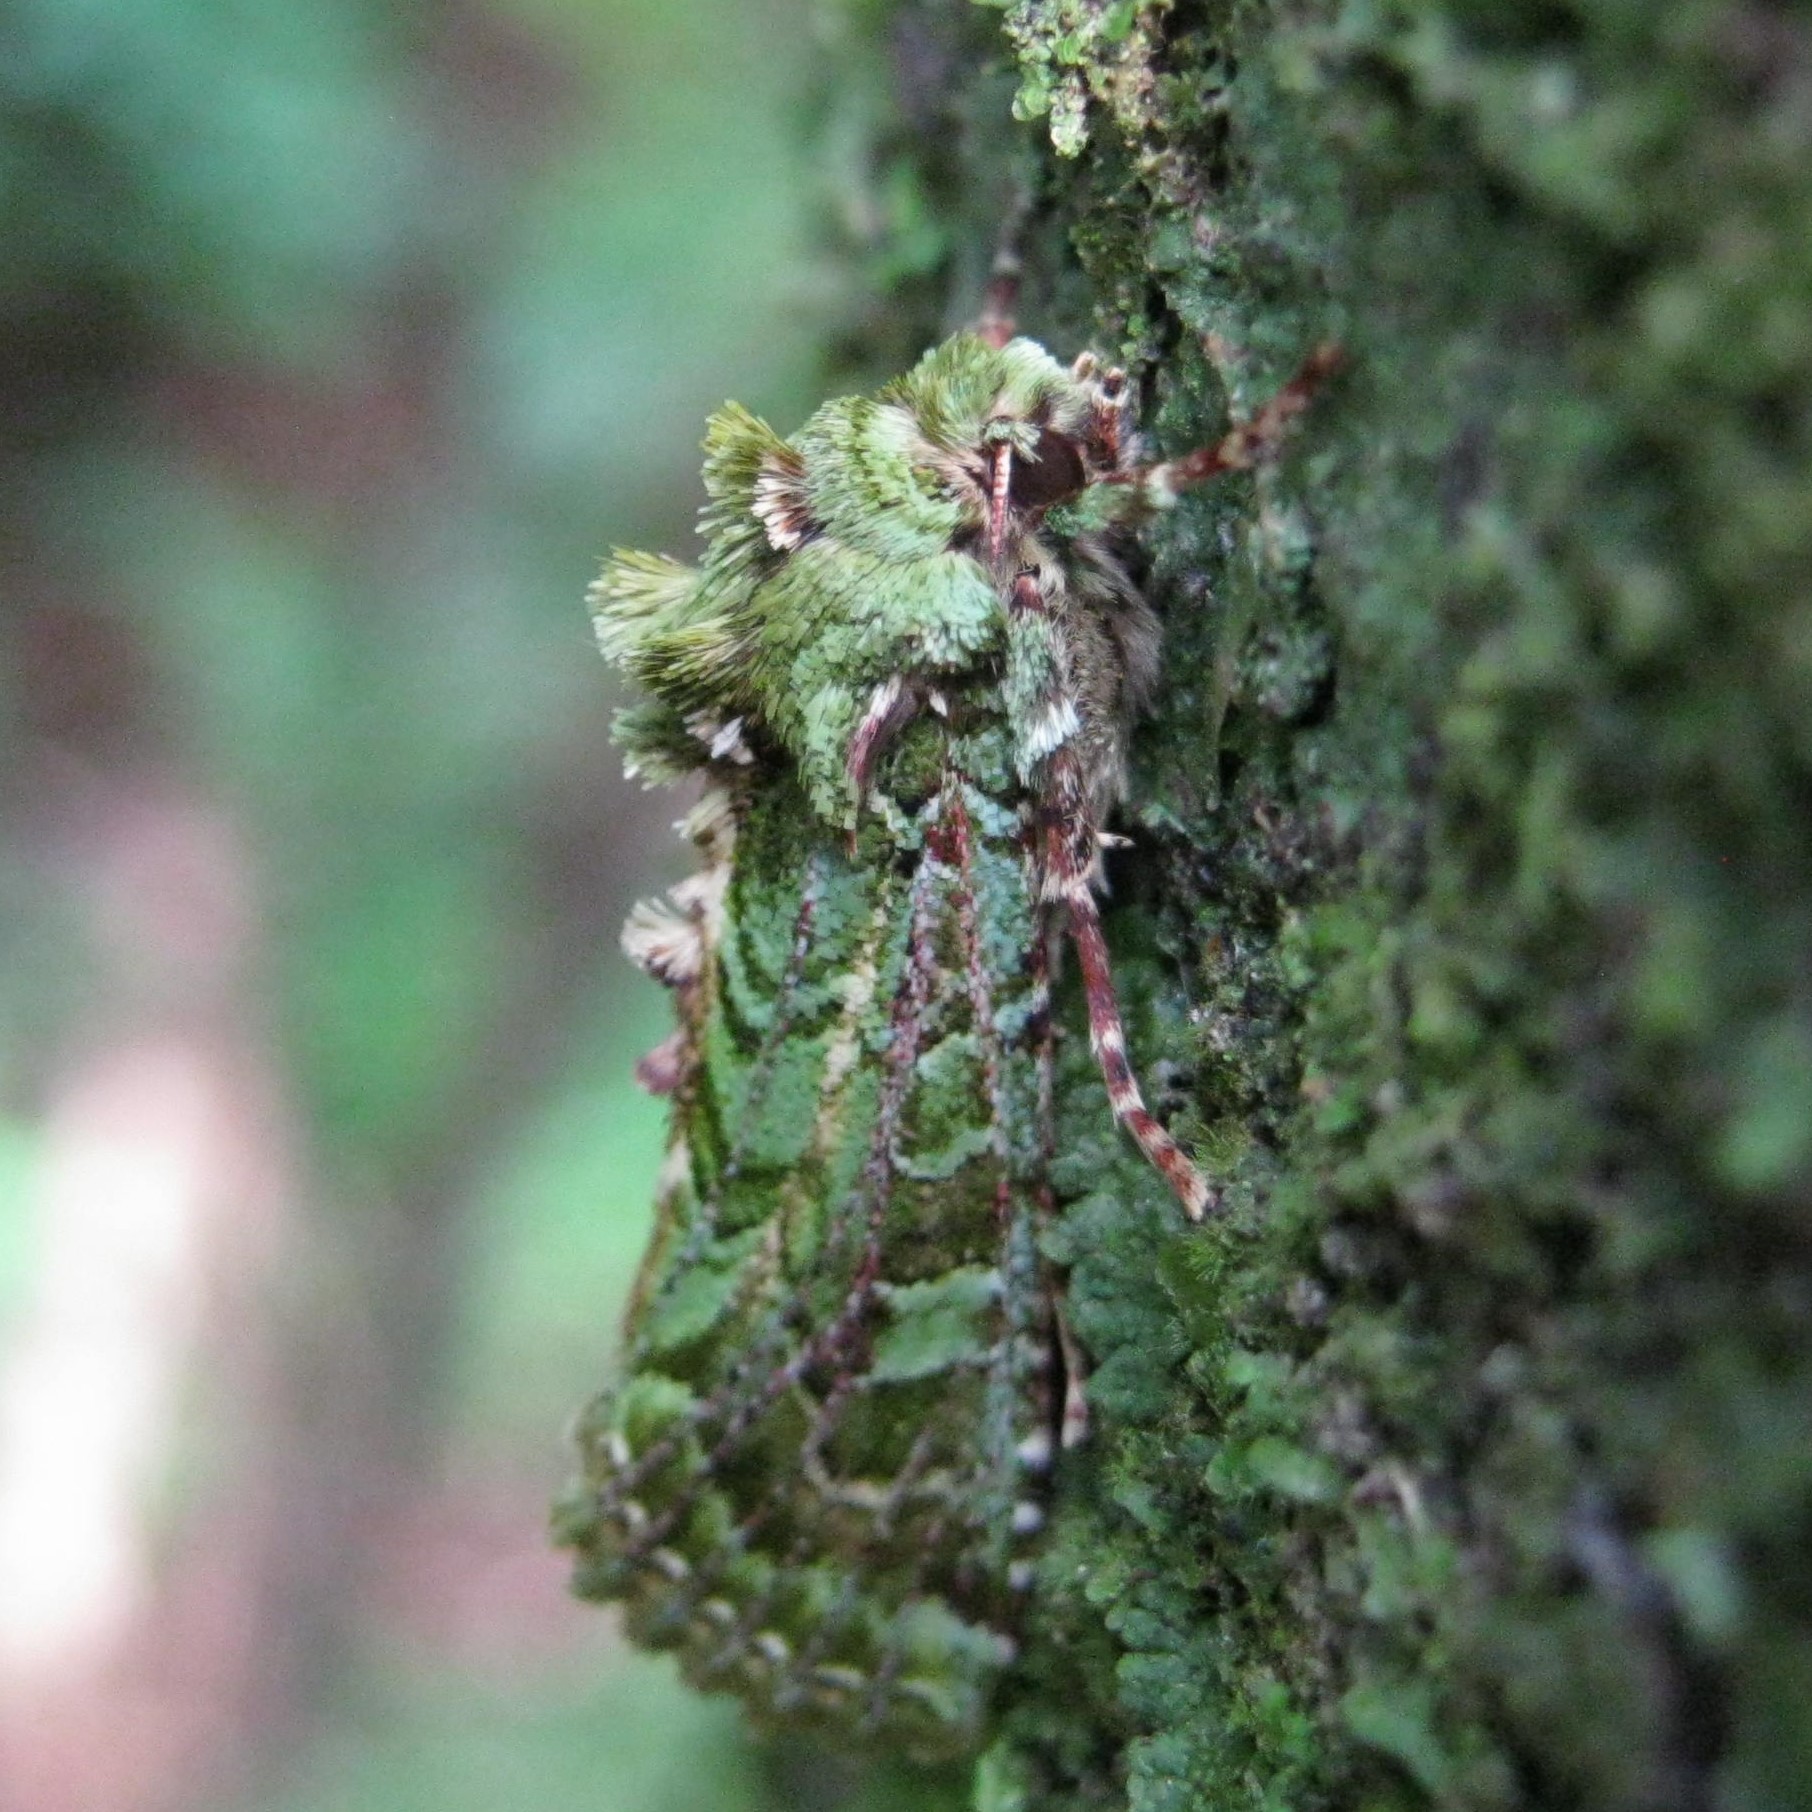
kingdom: Animalia
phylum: Arthropoda
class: Insecta
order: Lepidoptera
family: Noctuidae
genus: Feredayia
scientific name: Feredayia grammosa
